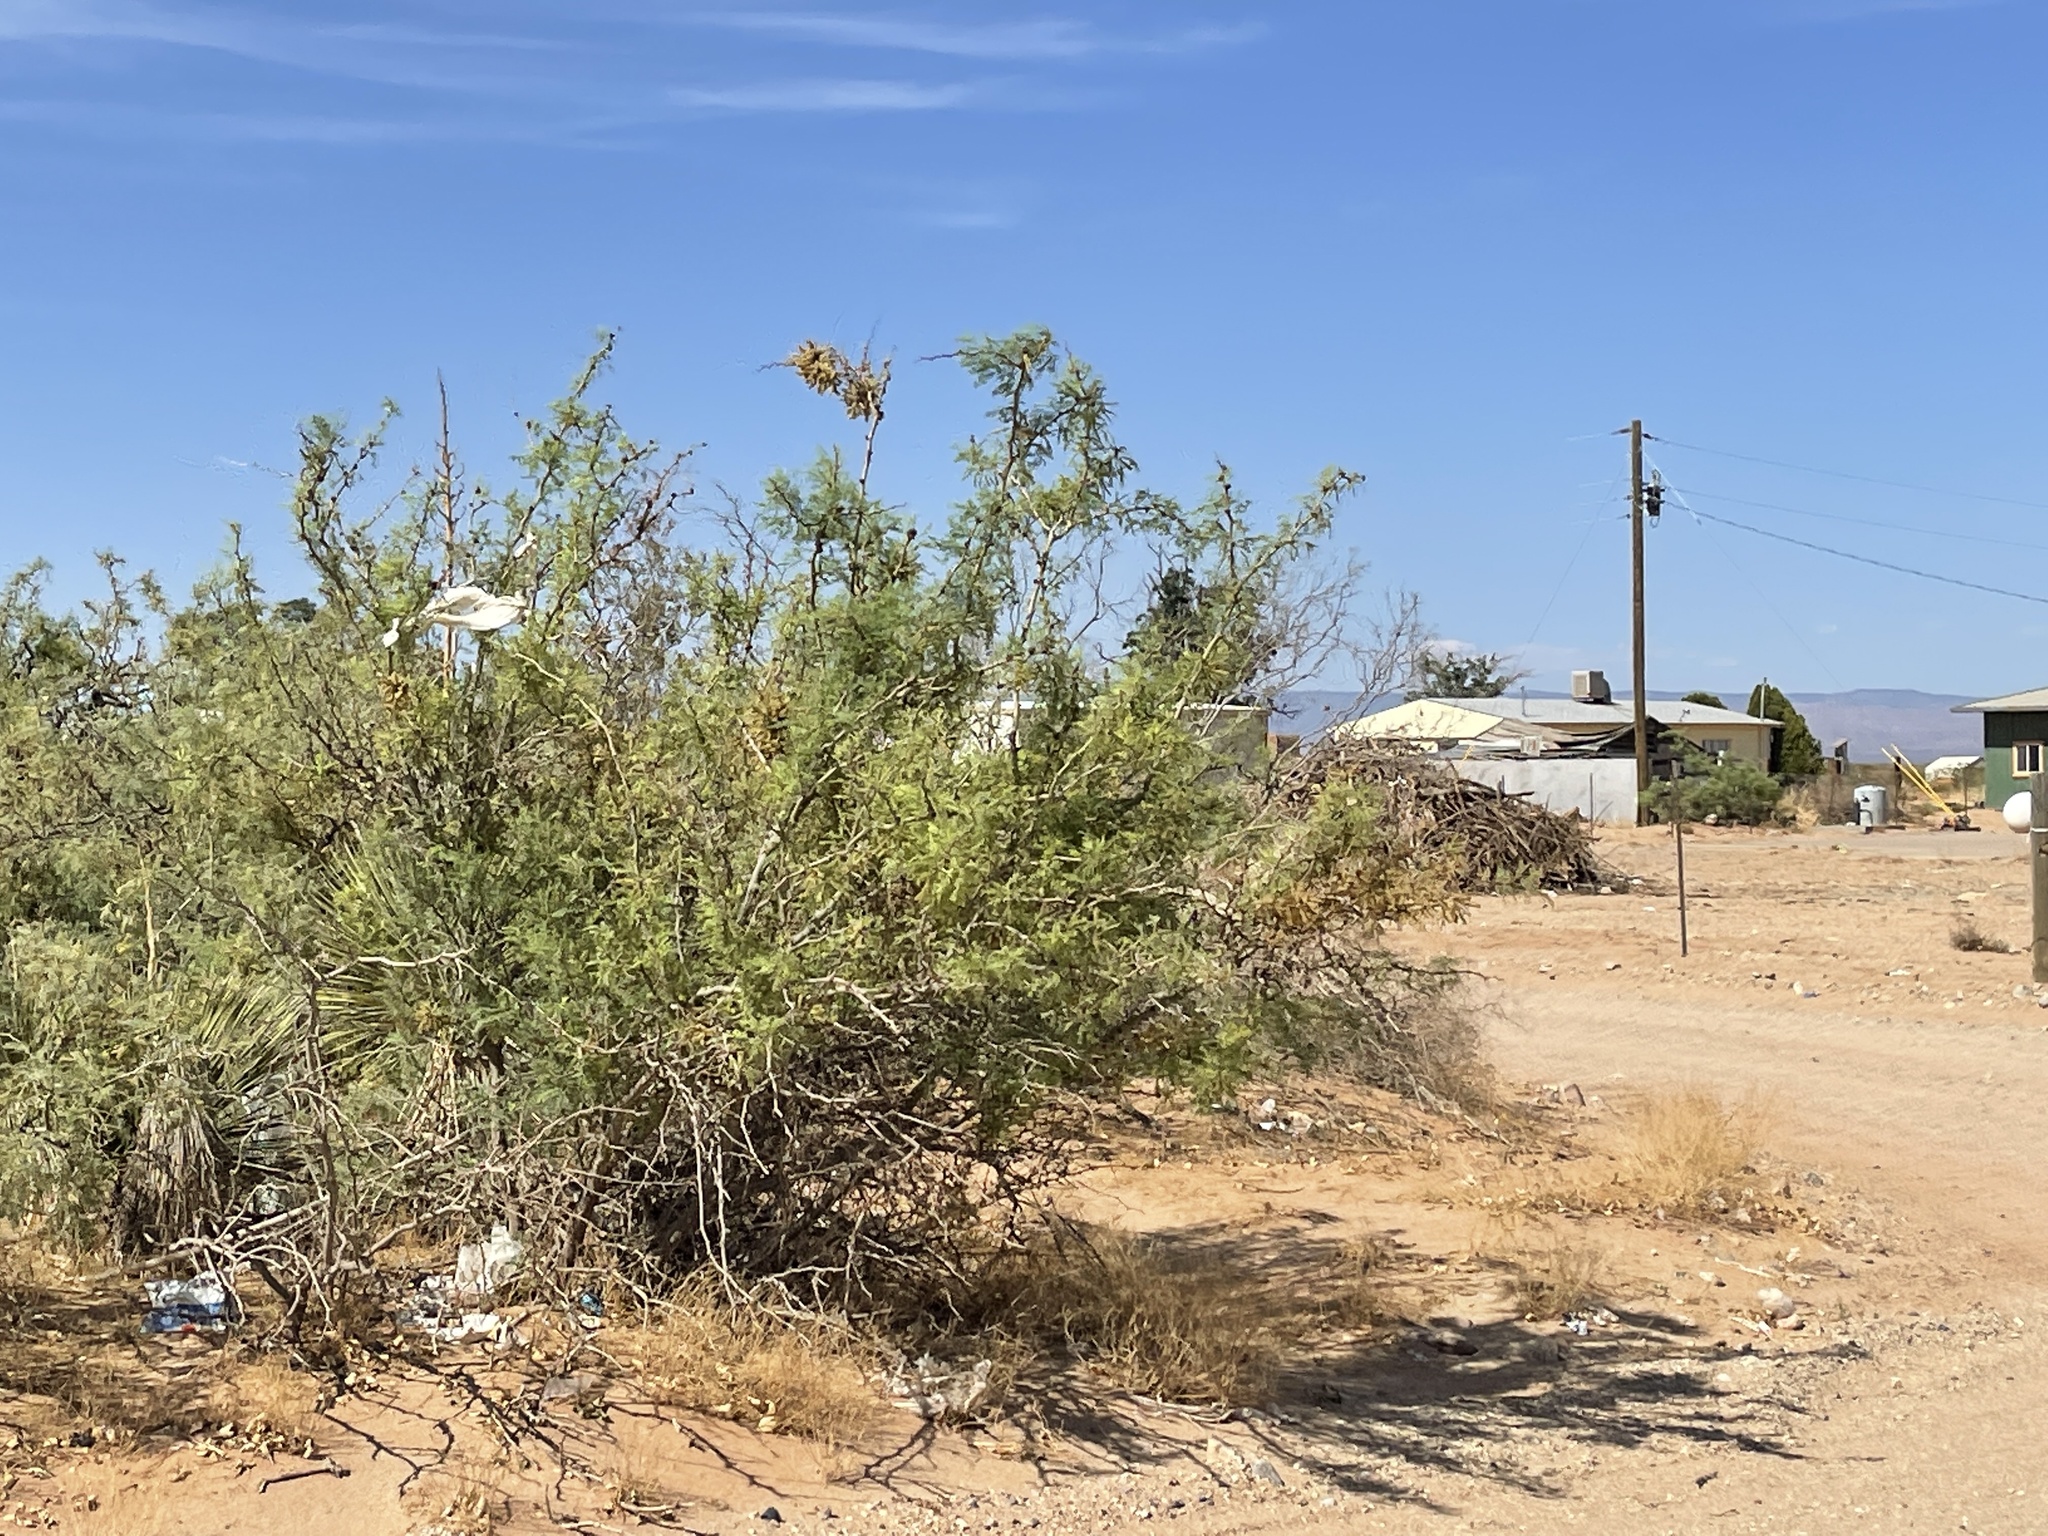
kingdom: Plantae
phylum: Tracheophyta
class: Magnoliopsida
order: Fabales
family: Fabaceae
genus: Prosopis
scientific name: Prosopis glandulosa
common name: Honey mesquite
